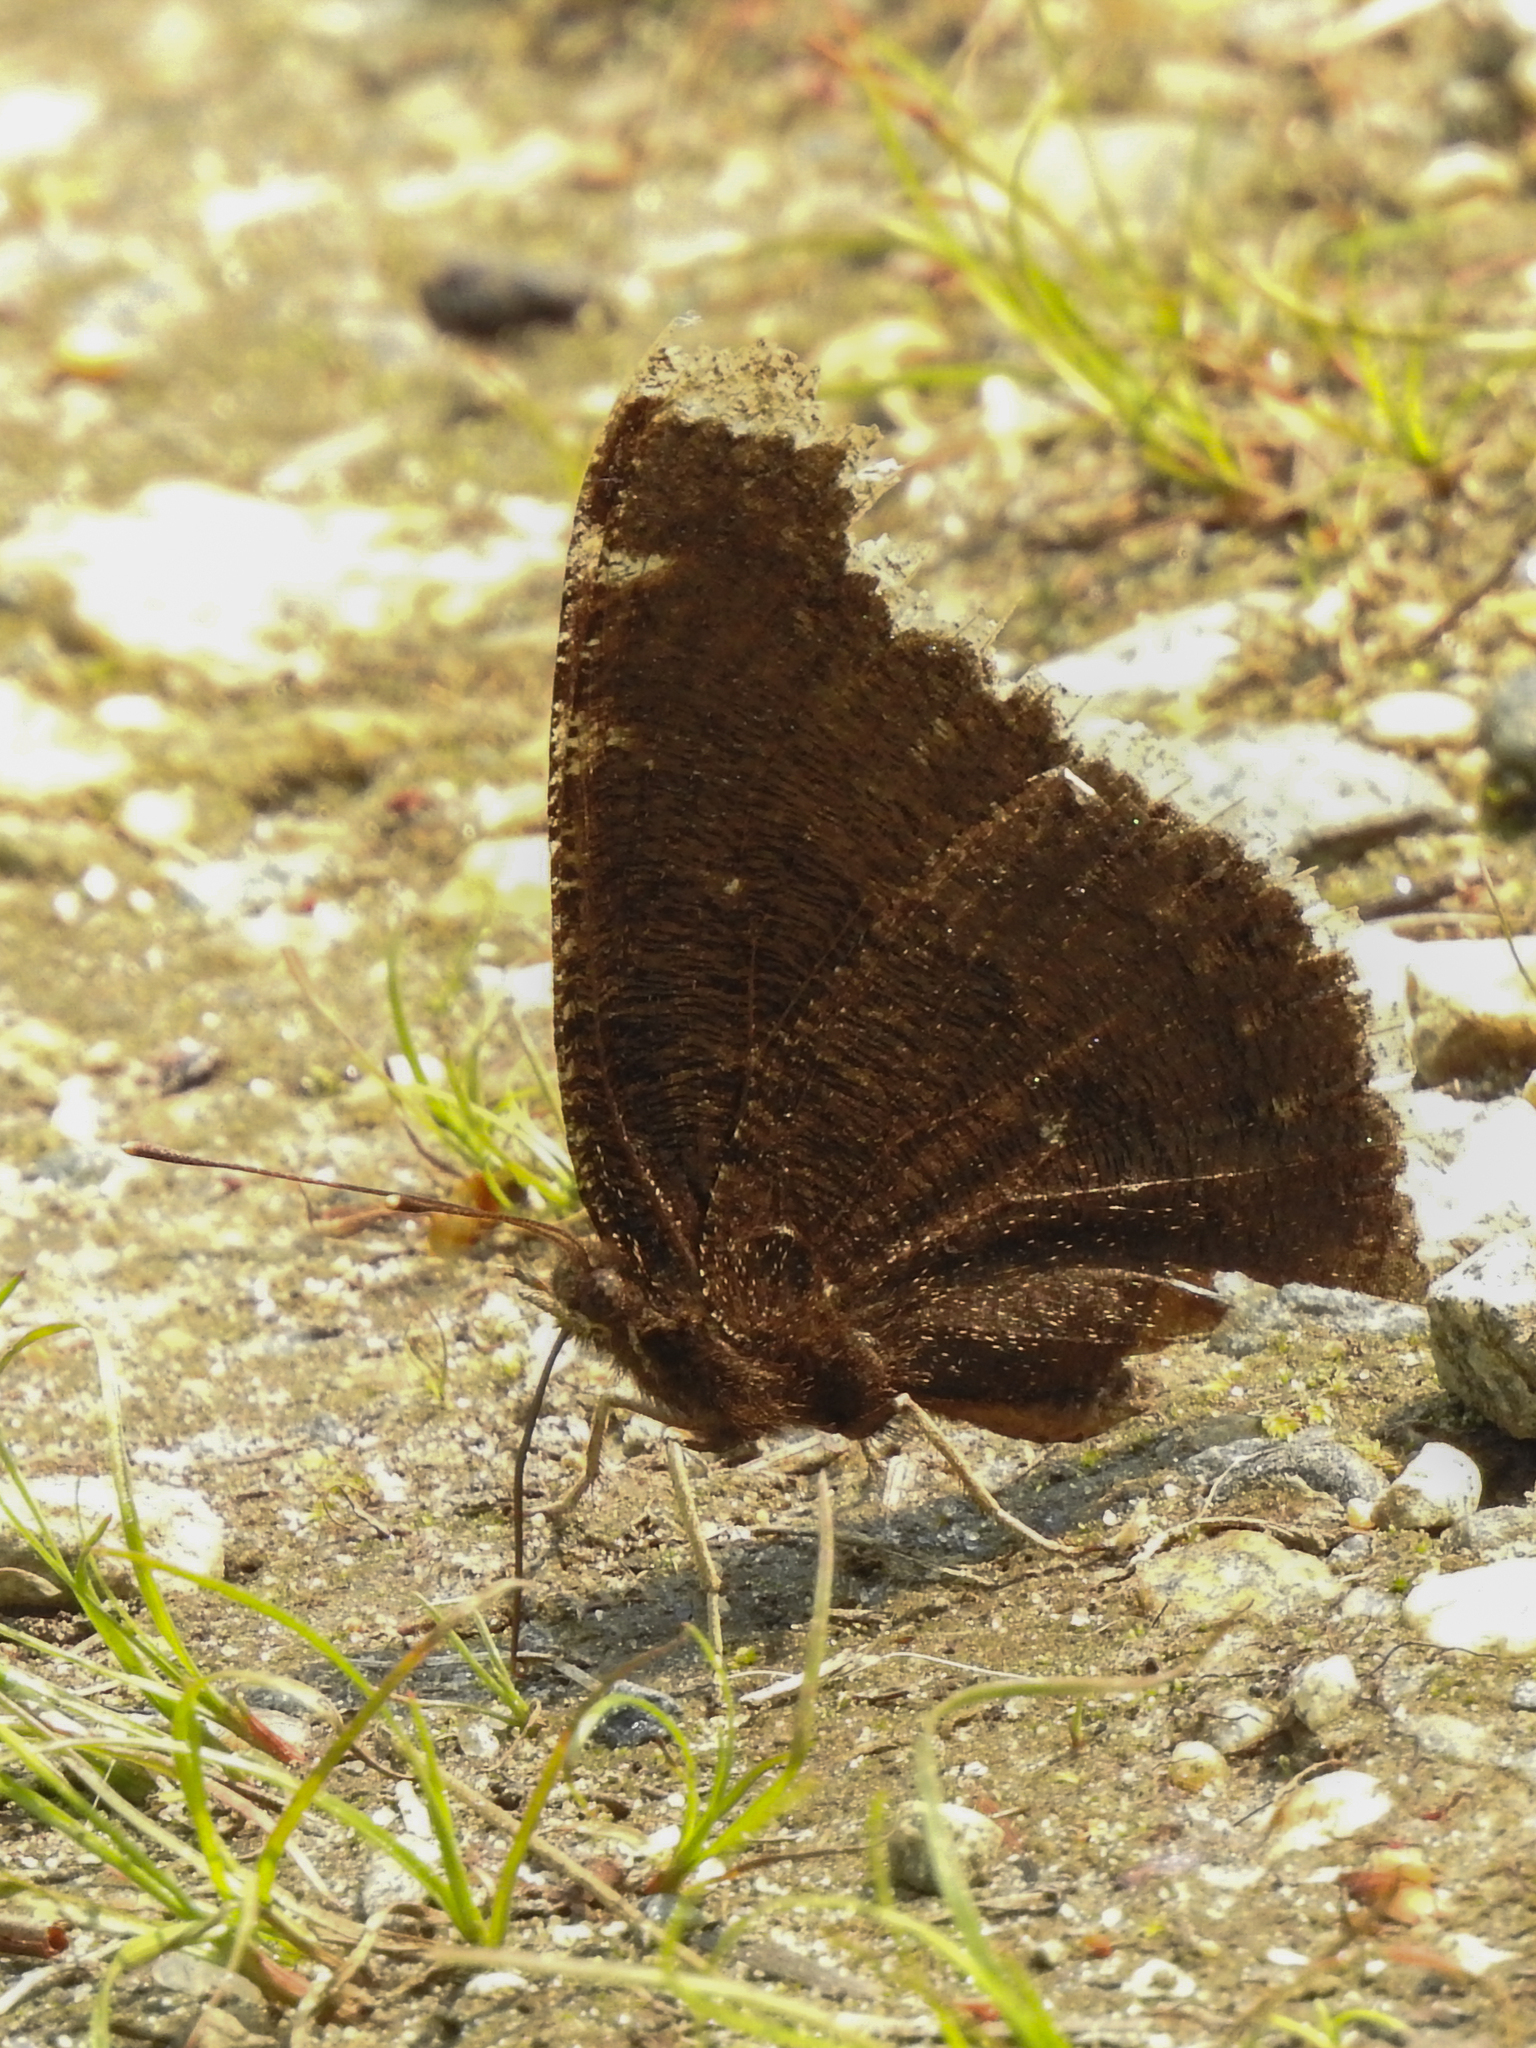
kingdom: Animalia
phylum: Arthropoda
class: Insecta
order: Lepidoptera
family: Nymphalidae
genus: Nymphalis
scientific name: Nymphalis antiopa
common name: Camberwell beauty
